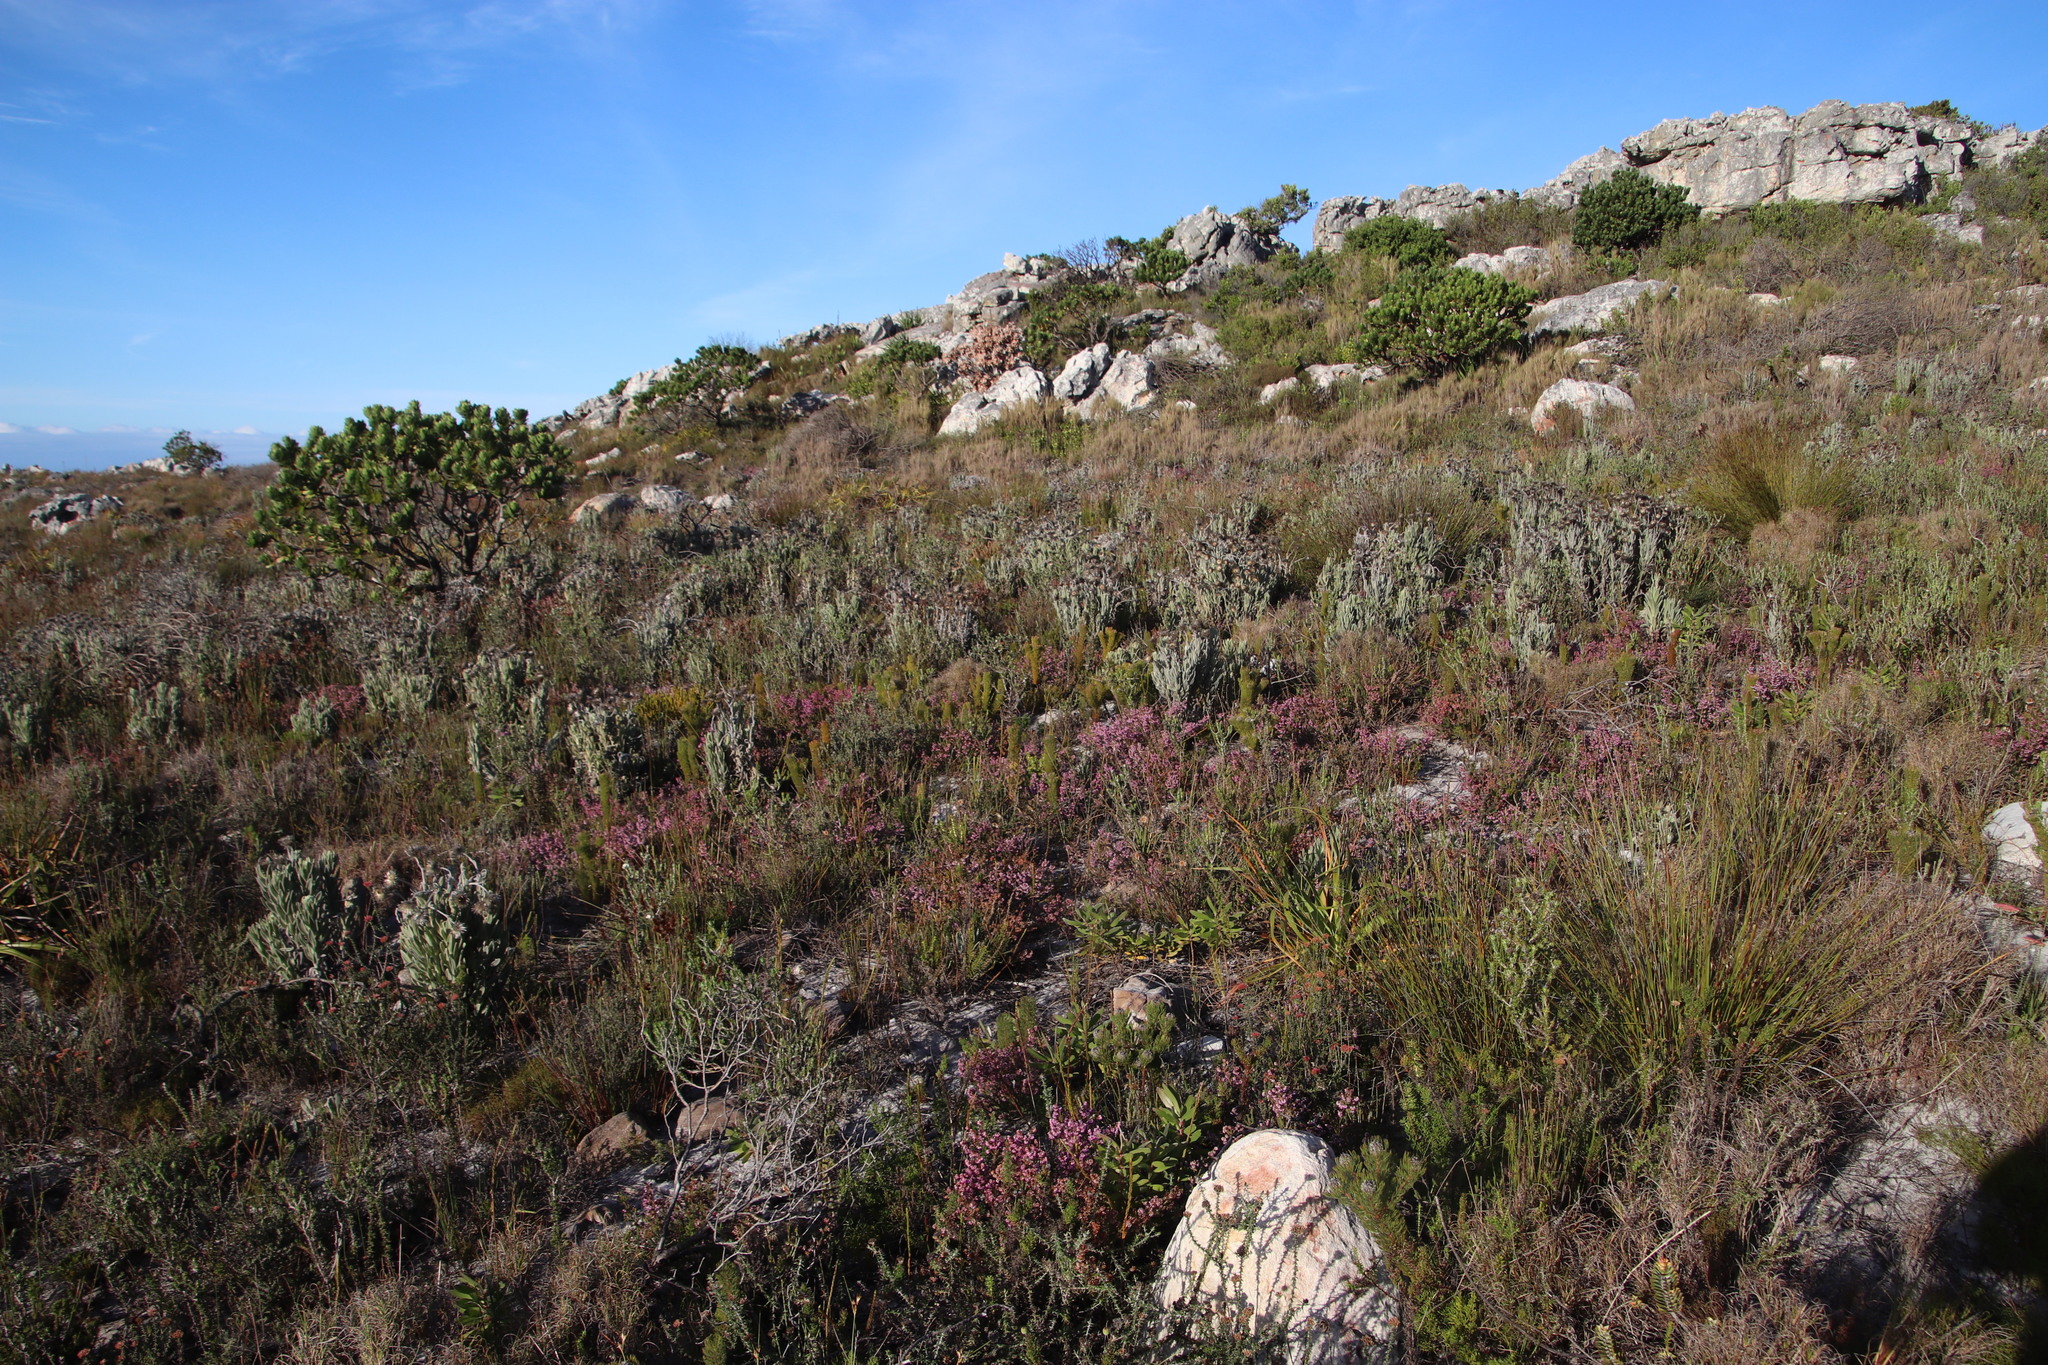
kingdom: Plantae
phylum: Tracheophyta
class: Magnoliopsida
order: Asterales
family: Asteraceae
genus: Syncarpha
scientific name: Syncarpha vestita
